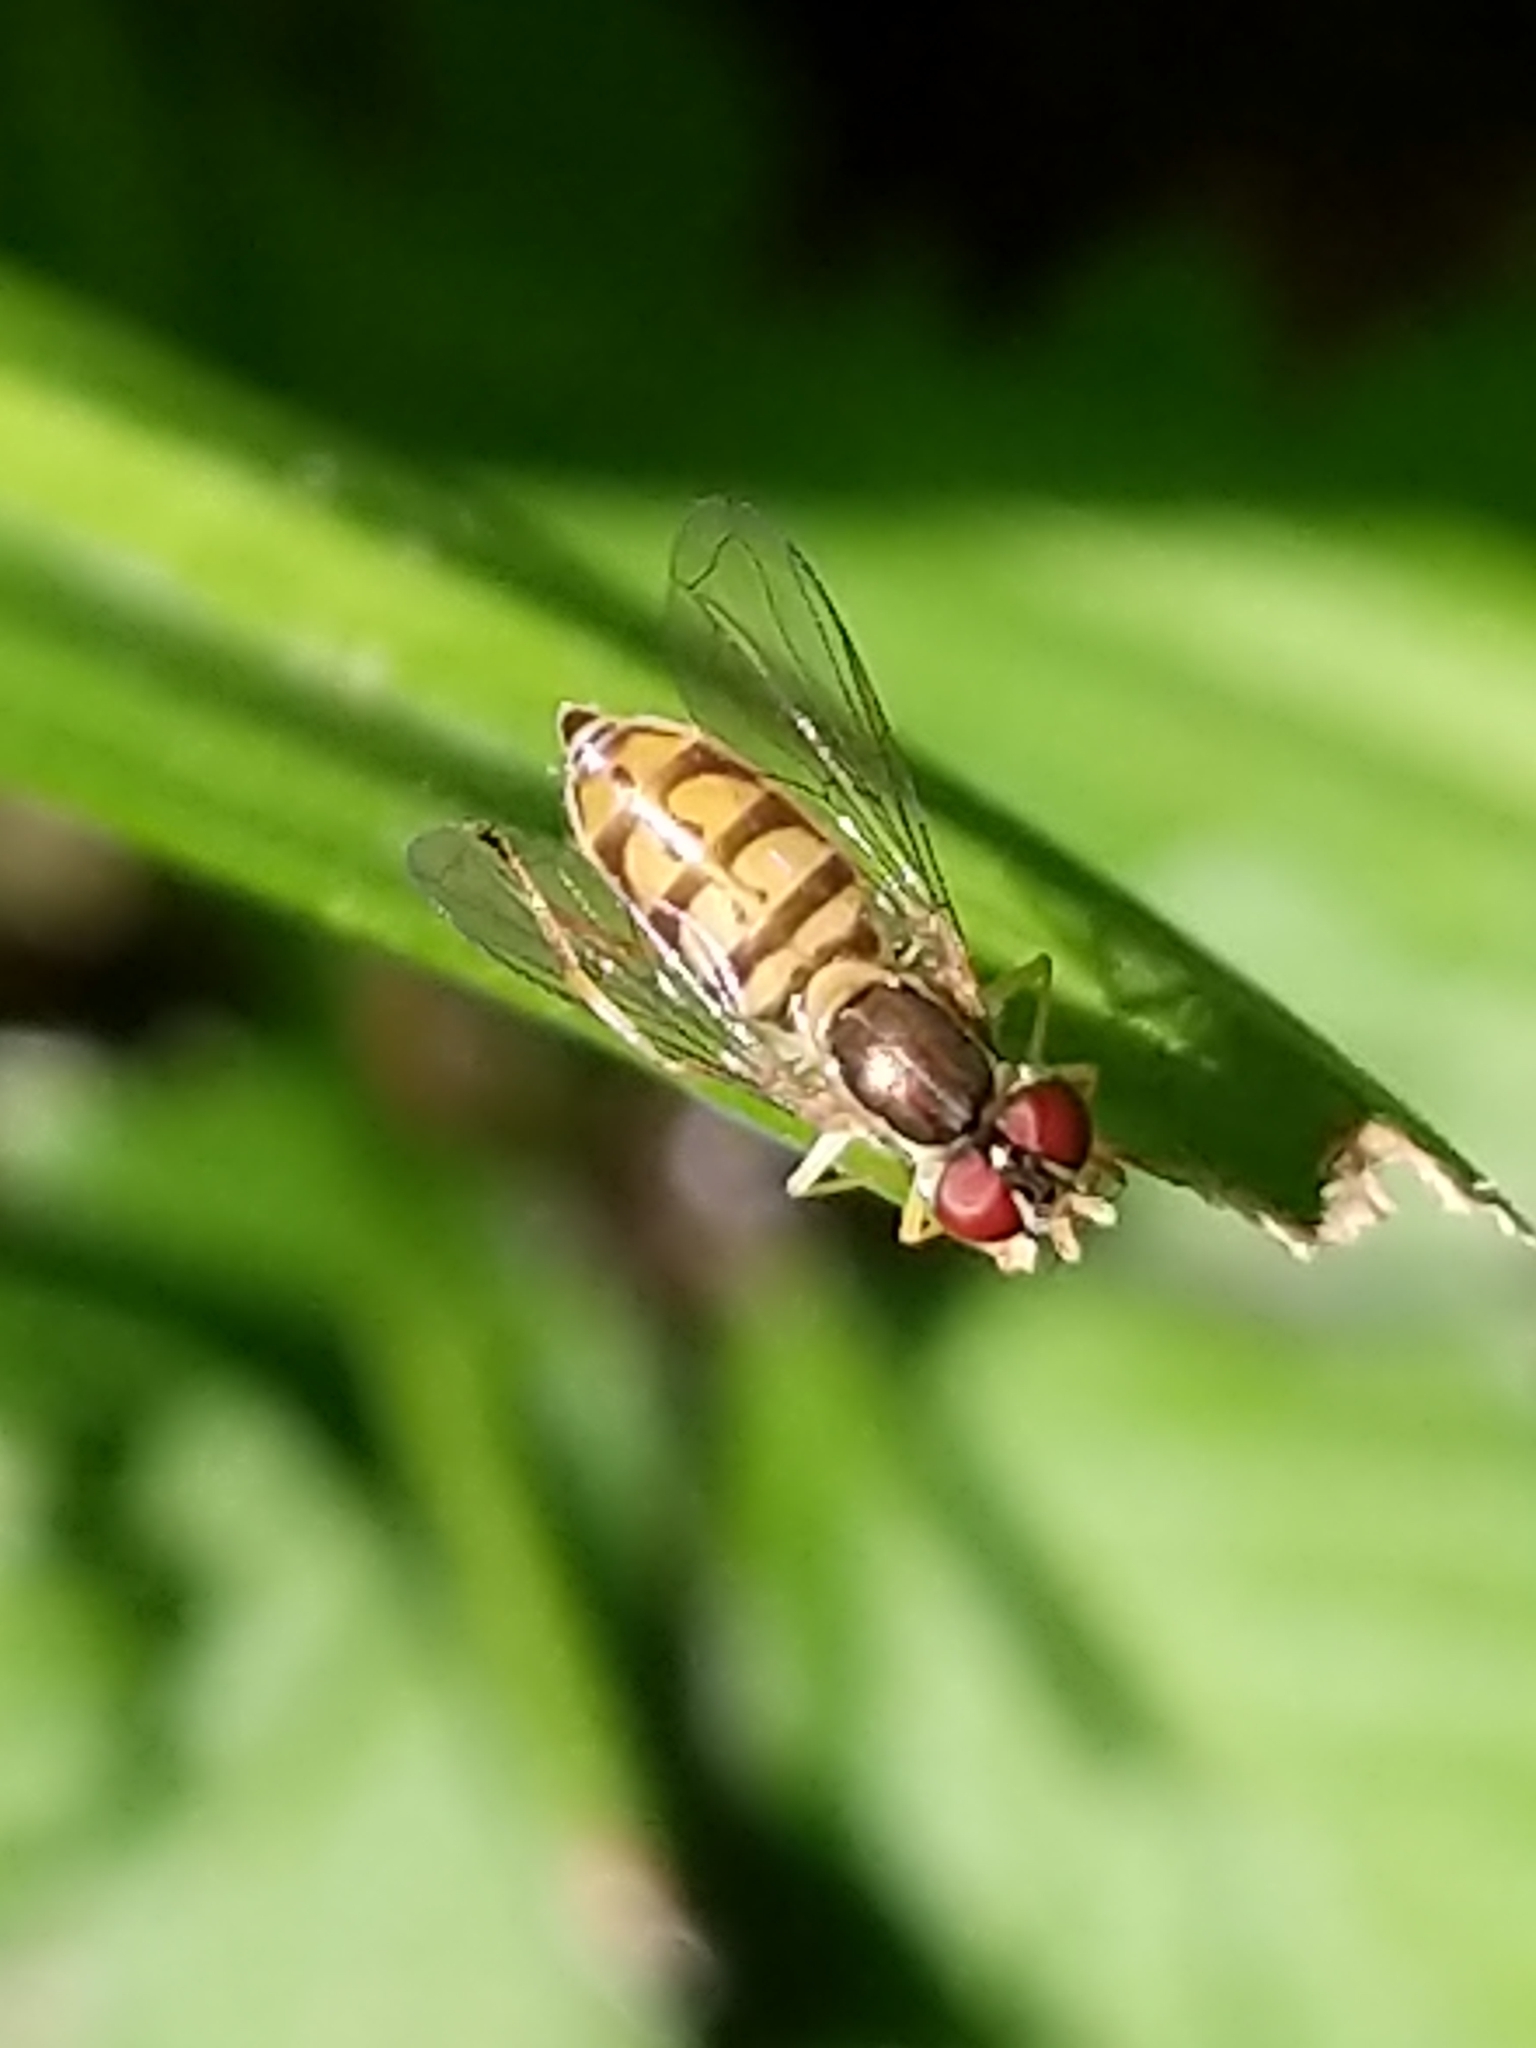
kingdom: Animalia
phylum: Arthropoda
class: Insecta
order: Diptera
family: Syrphidae
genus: Toxomerus
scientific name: Toxomerus marginatus
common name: Syrphid fly
